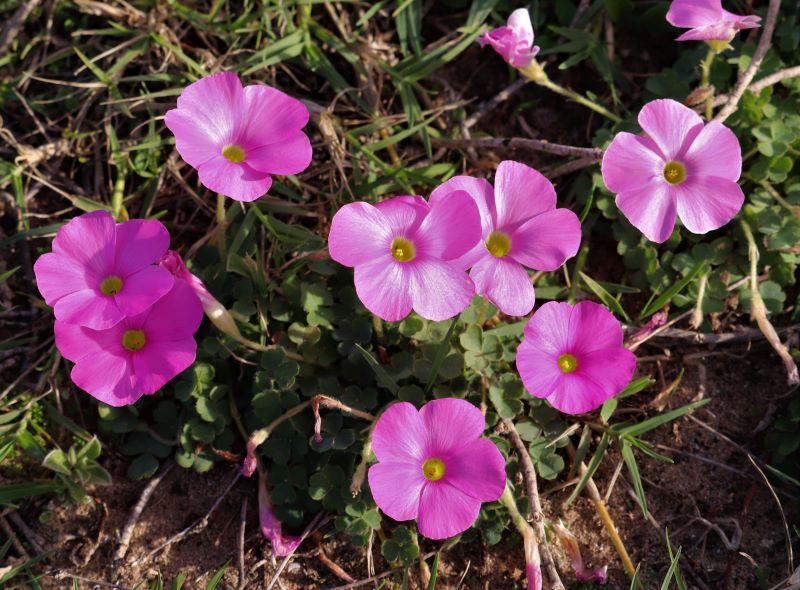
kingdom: Plantae
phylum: Tracheophyta
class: Magnoliopsida
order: Oxalidales
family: Oxalidaceae
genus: Oxalis
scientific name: Oxalis imbricata
